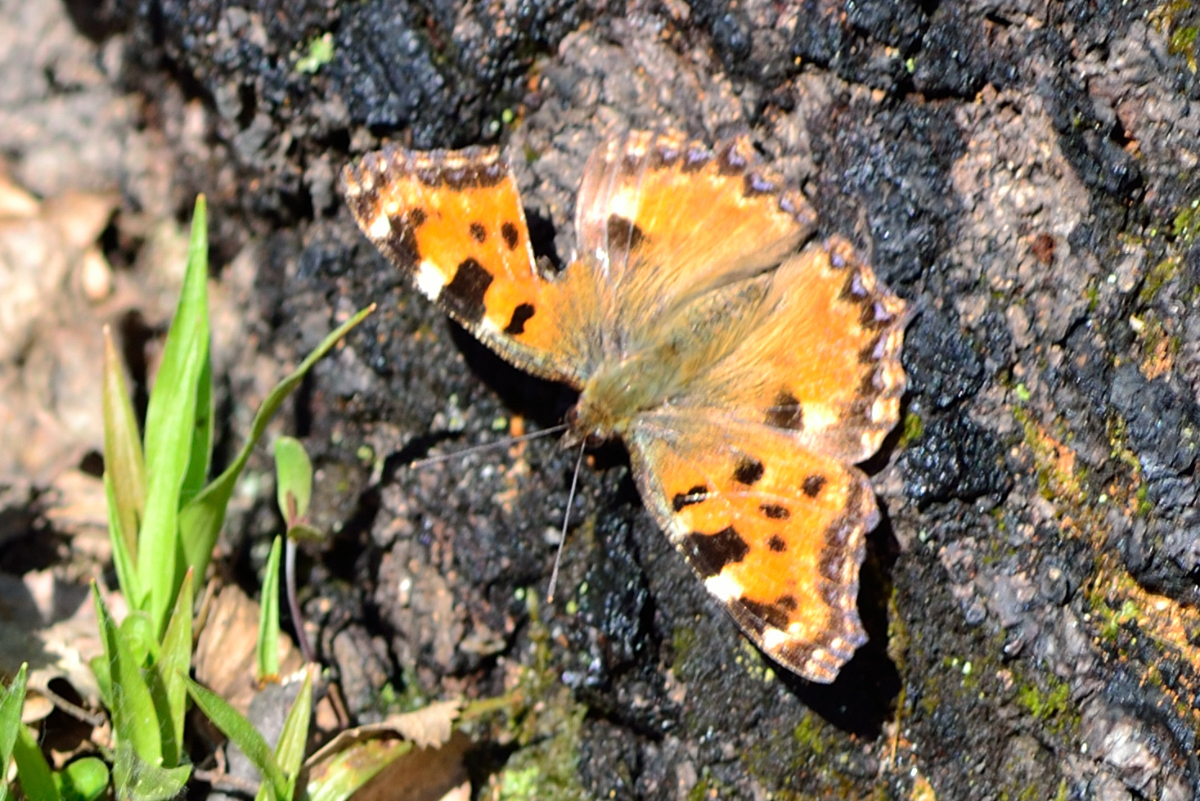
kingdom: Animalia
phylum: Arthropoda
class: Insecta
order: Lepidoptera
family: Nymphalidae
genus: Nymphalis
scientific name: Nymphalis polychloros
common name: Large tortoiseshell
